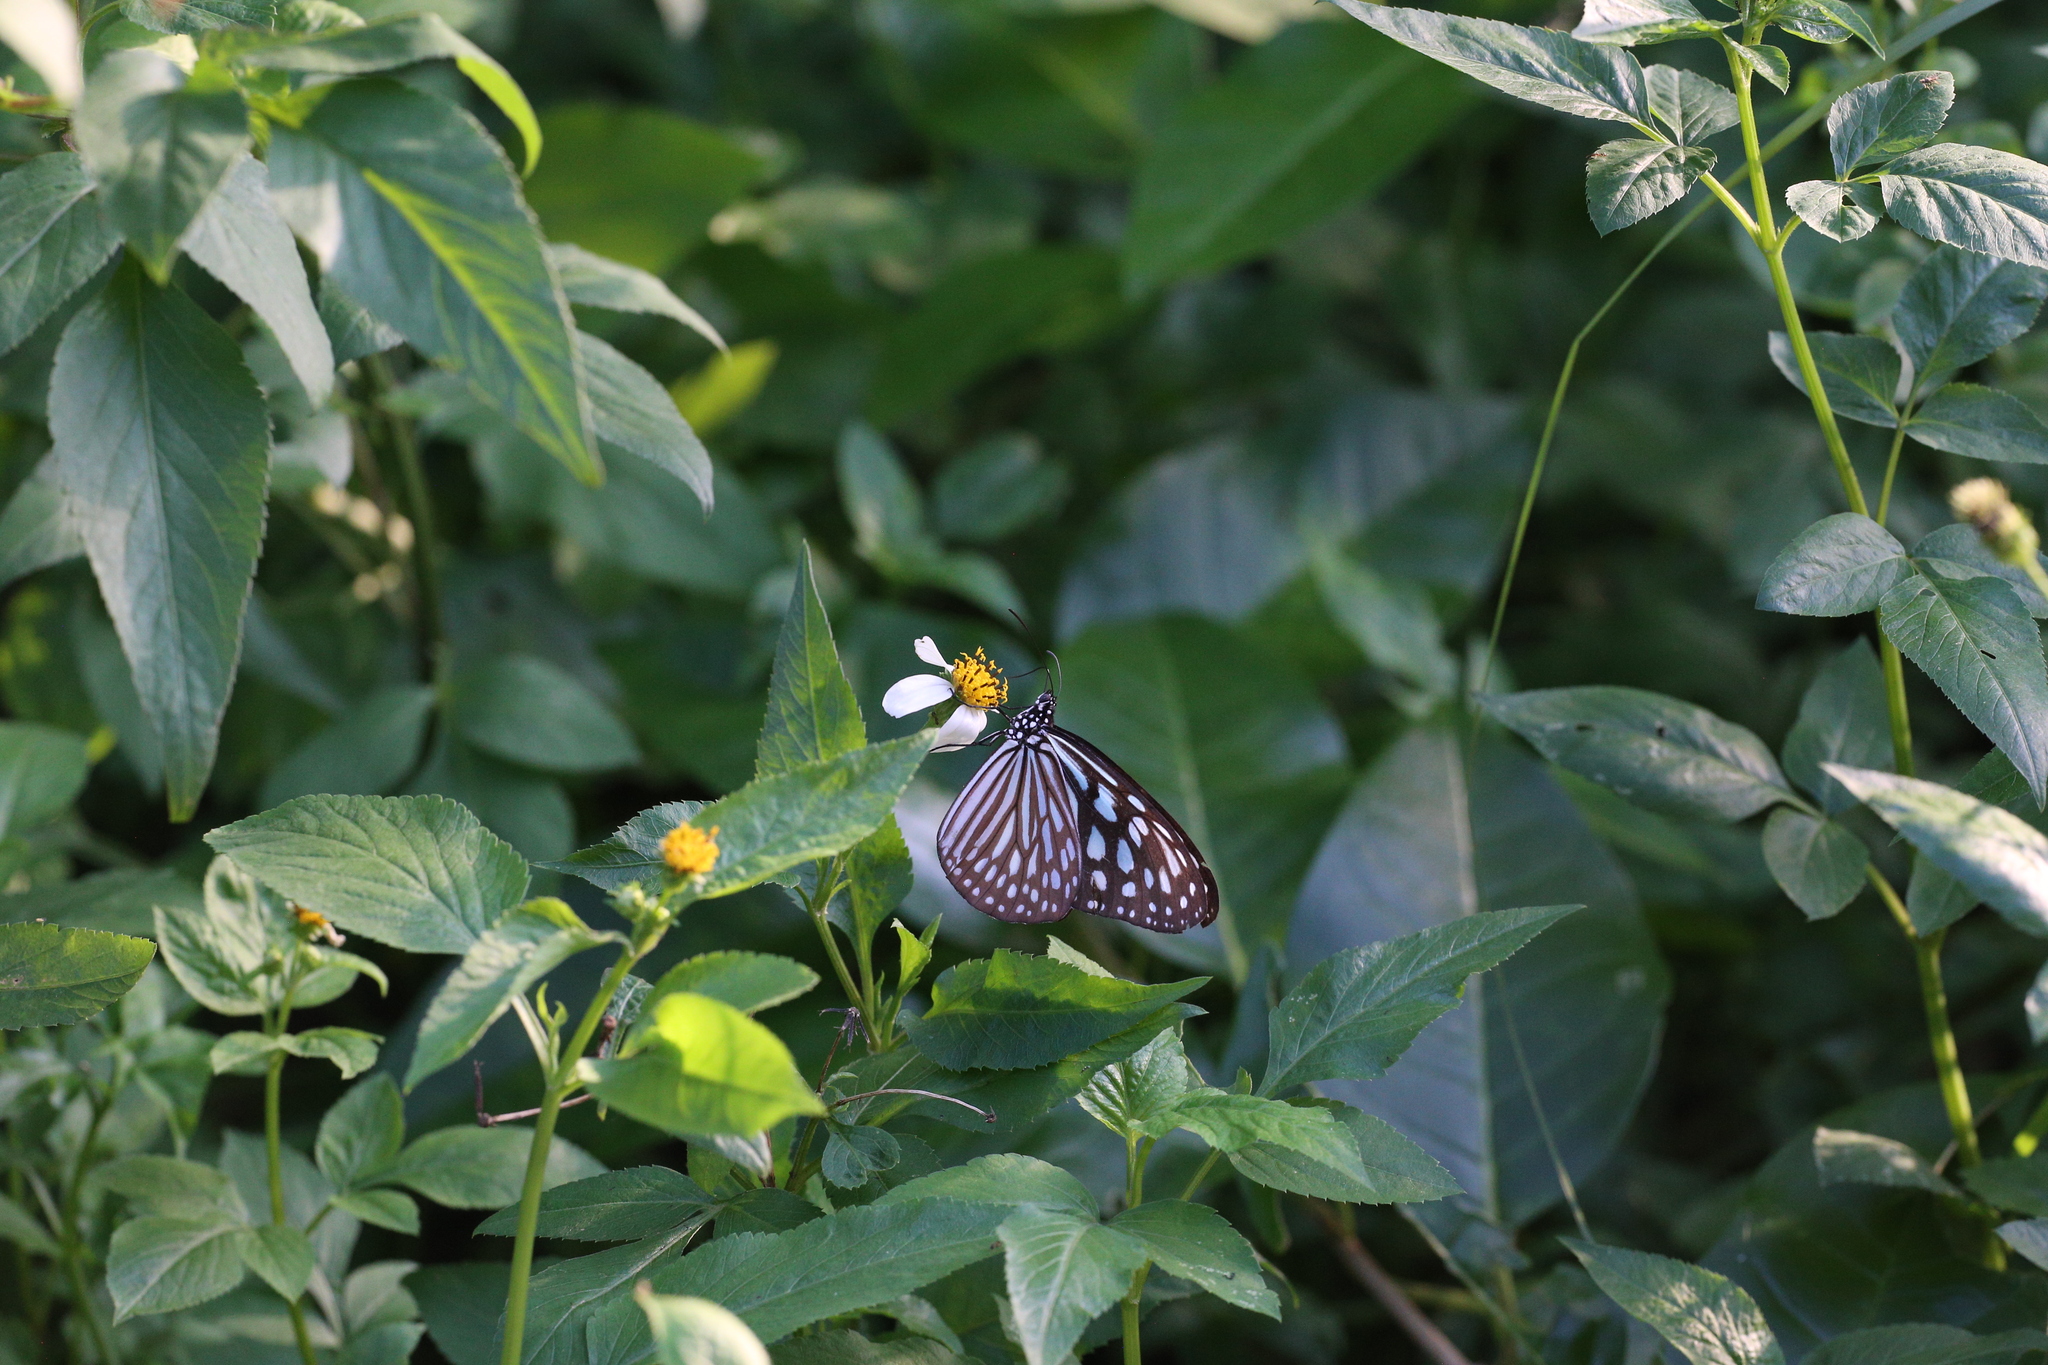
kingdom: Animalia
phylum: Arthropoda
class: Insecta
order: Lepidoptera
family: Nymphalidae
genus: Ideopsis
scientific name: Ideopsis similis
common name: Ceylon blue glassy tiger
